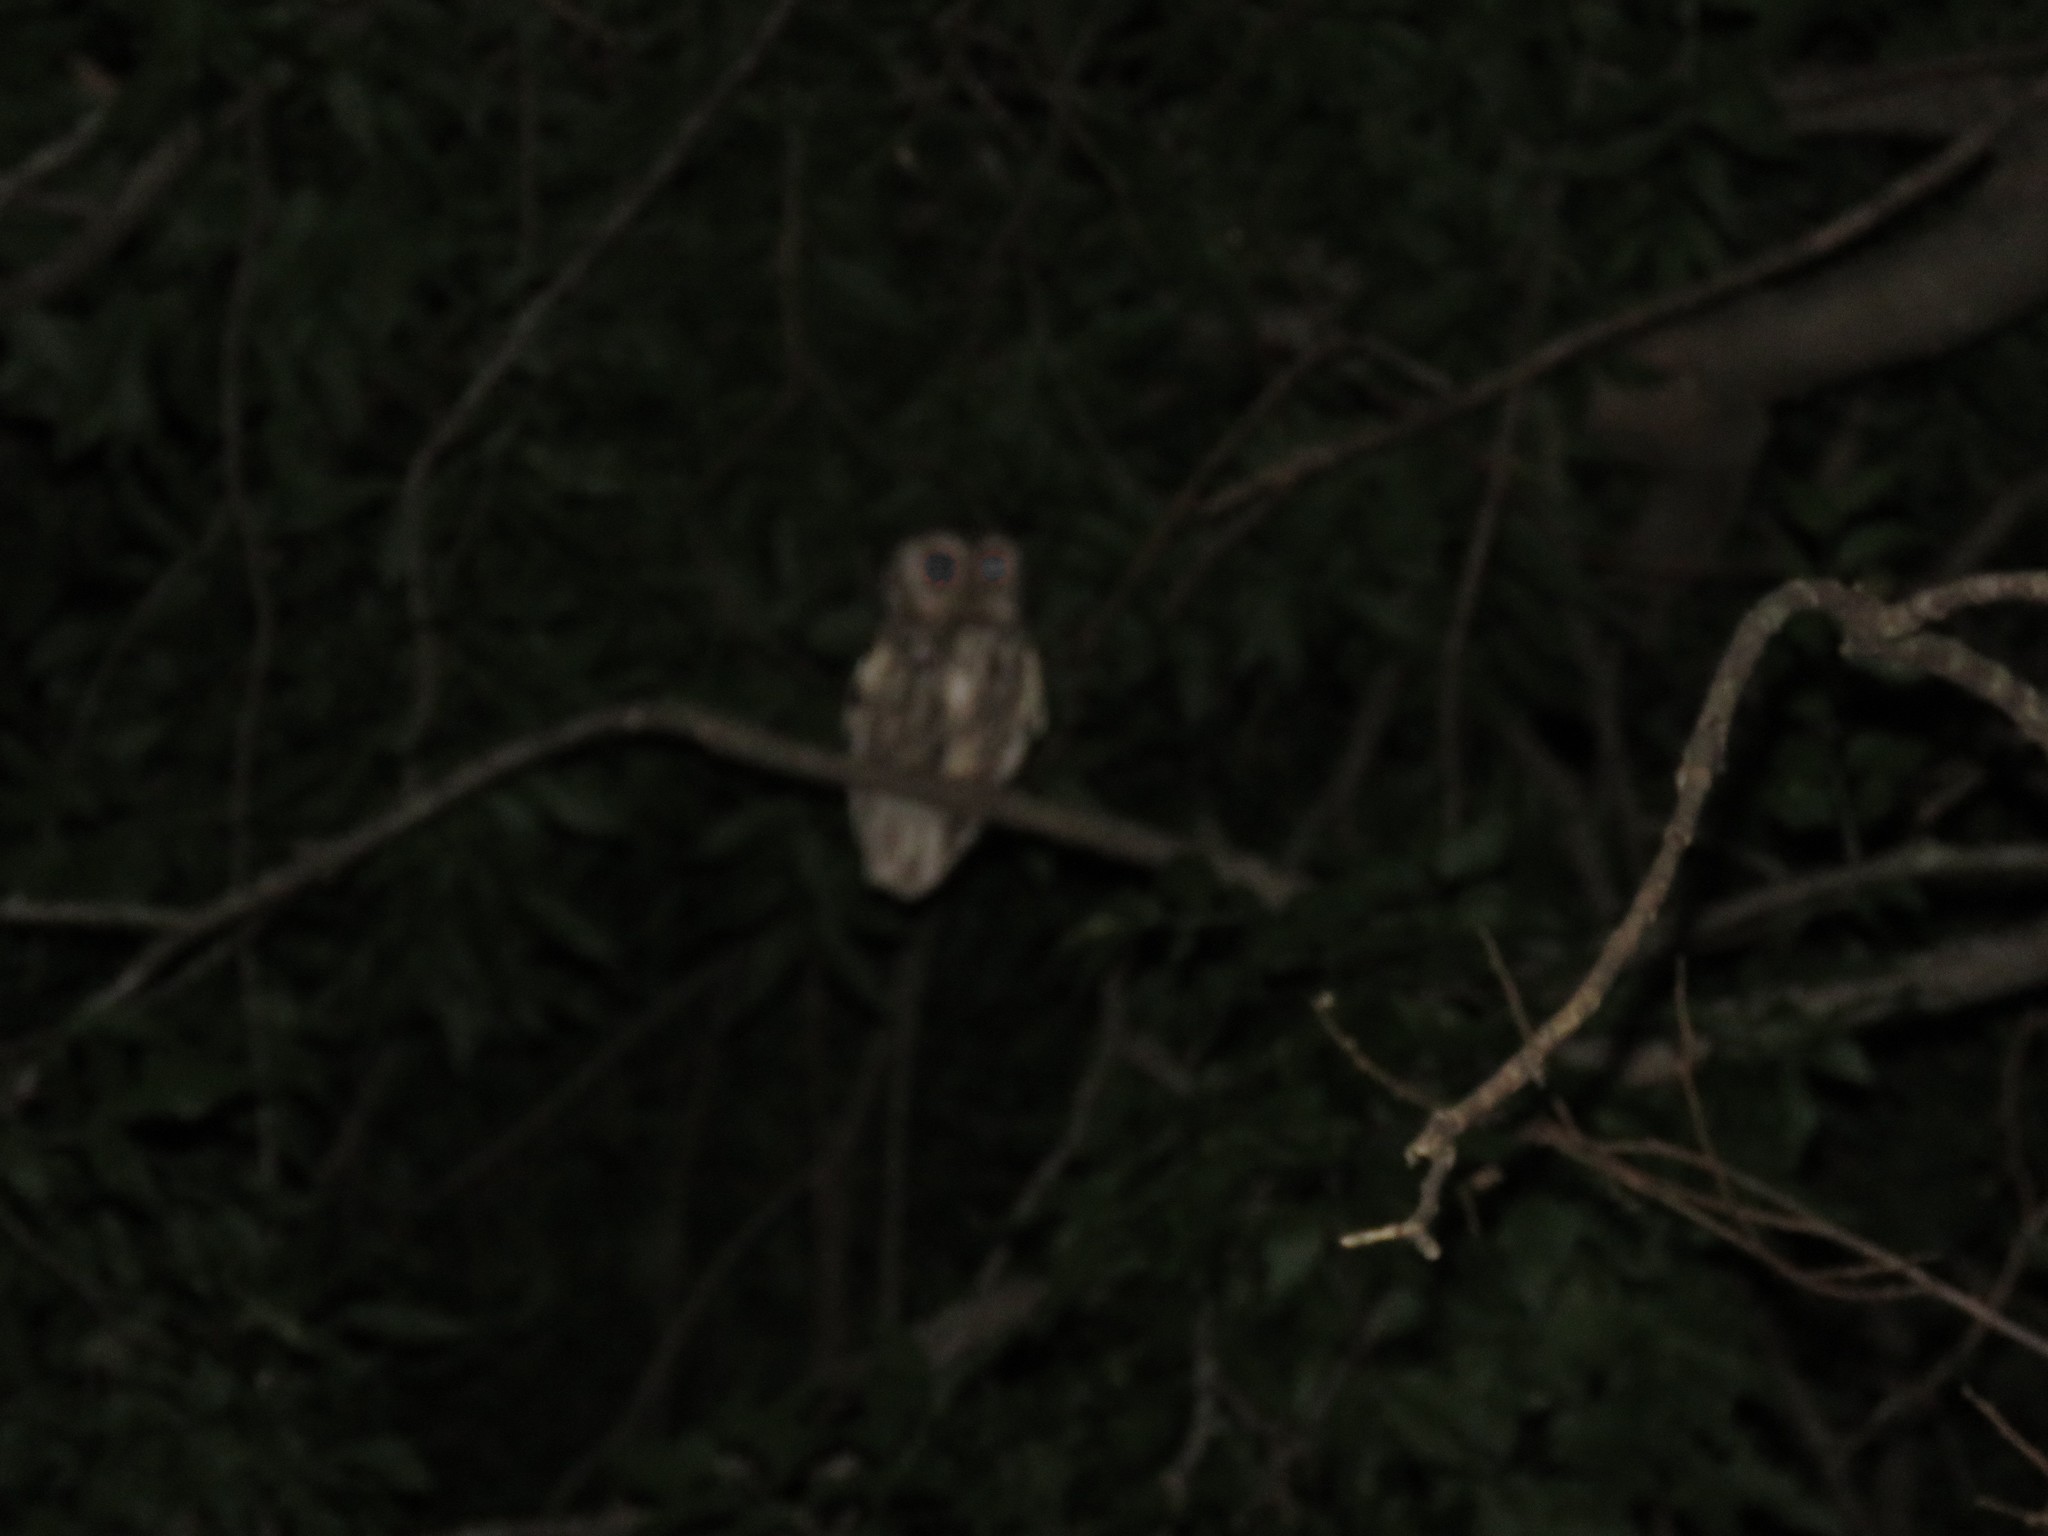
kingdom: Animalia
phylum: Chordata
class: Aves
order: Strigiformes
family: Strigidae
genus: Megascops
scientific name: Megascops asio
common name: Eastern screech-owl
